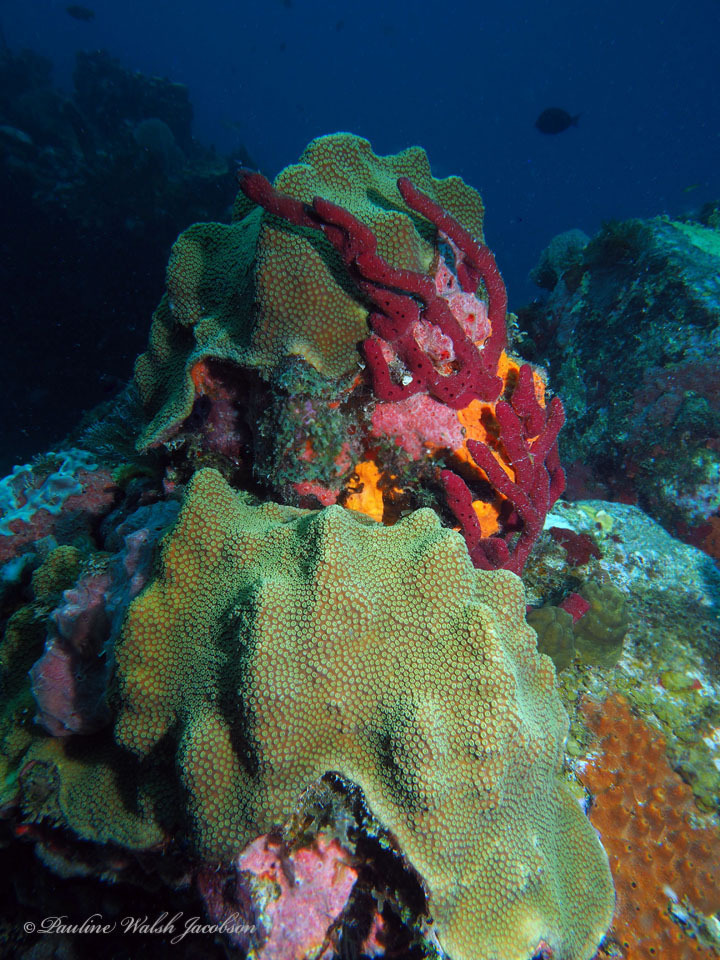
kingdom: Animalia
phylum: Porifera
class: Demospongiae
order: Haplosclerida
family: Niphatidae
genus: Amphimedon
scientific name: Amphimedon compressa
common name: Red sponge
